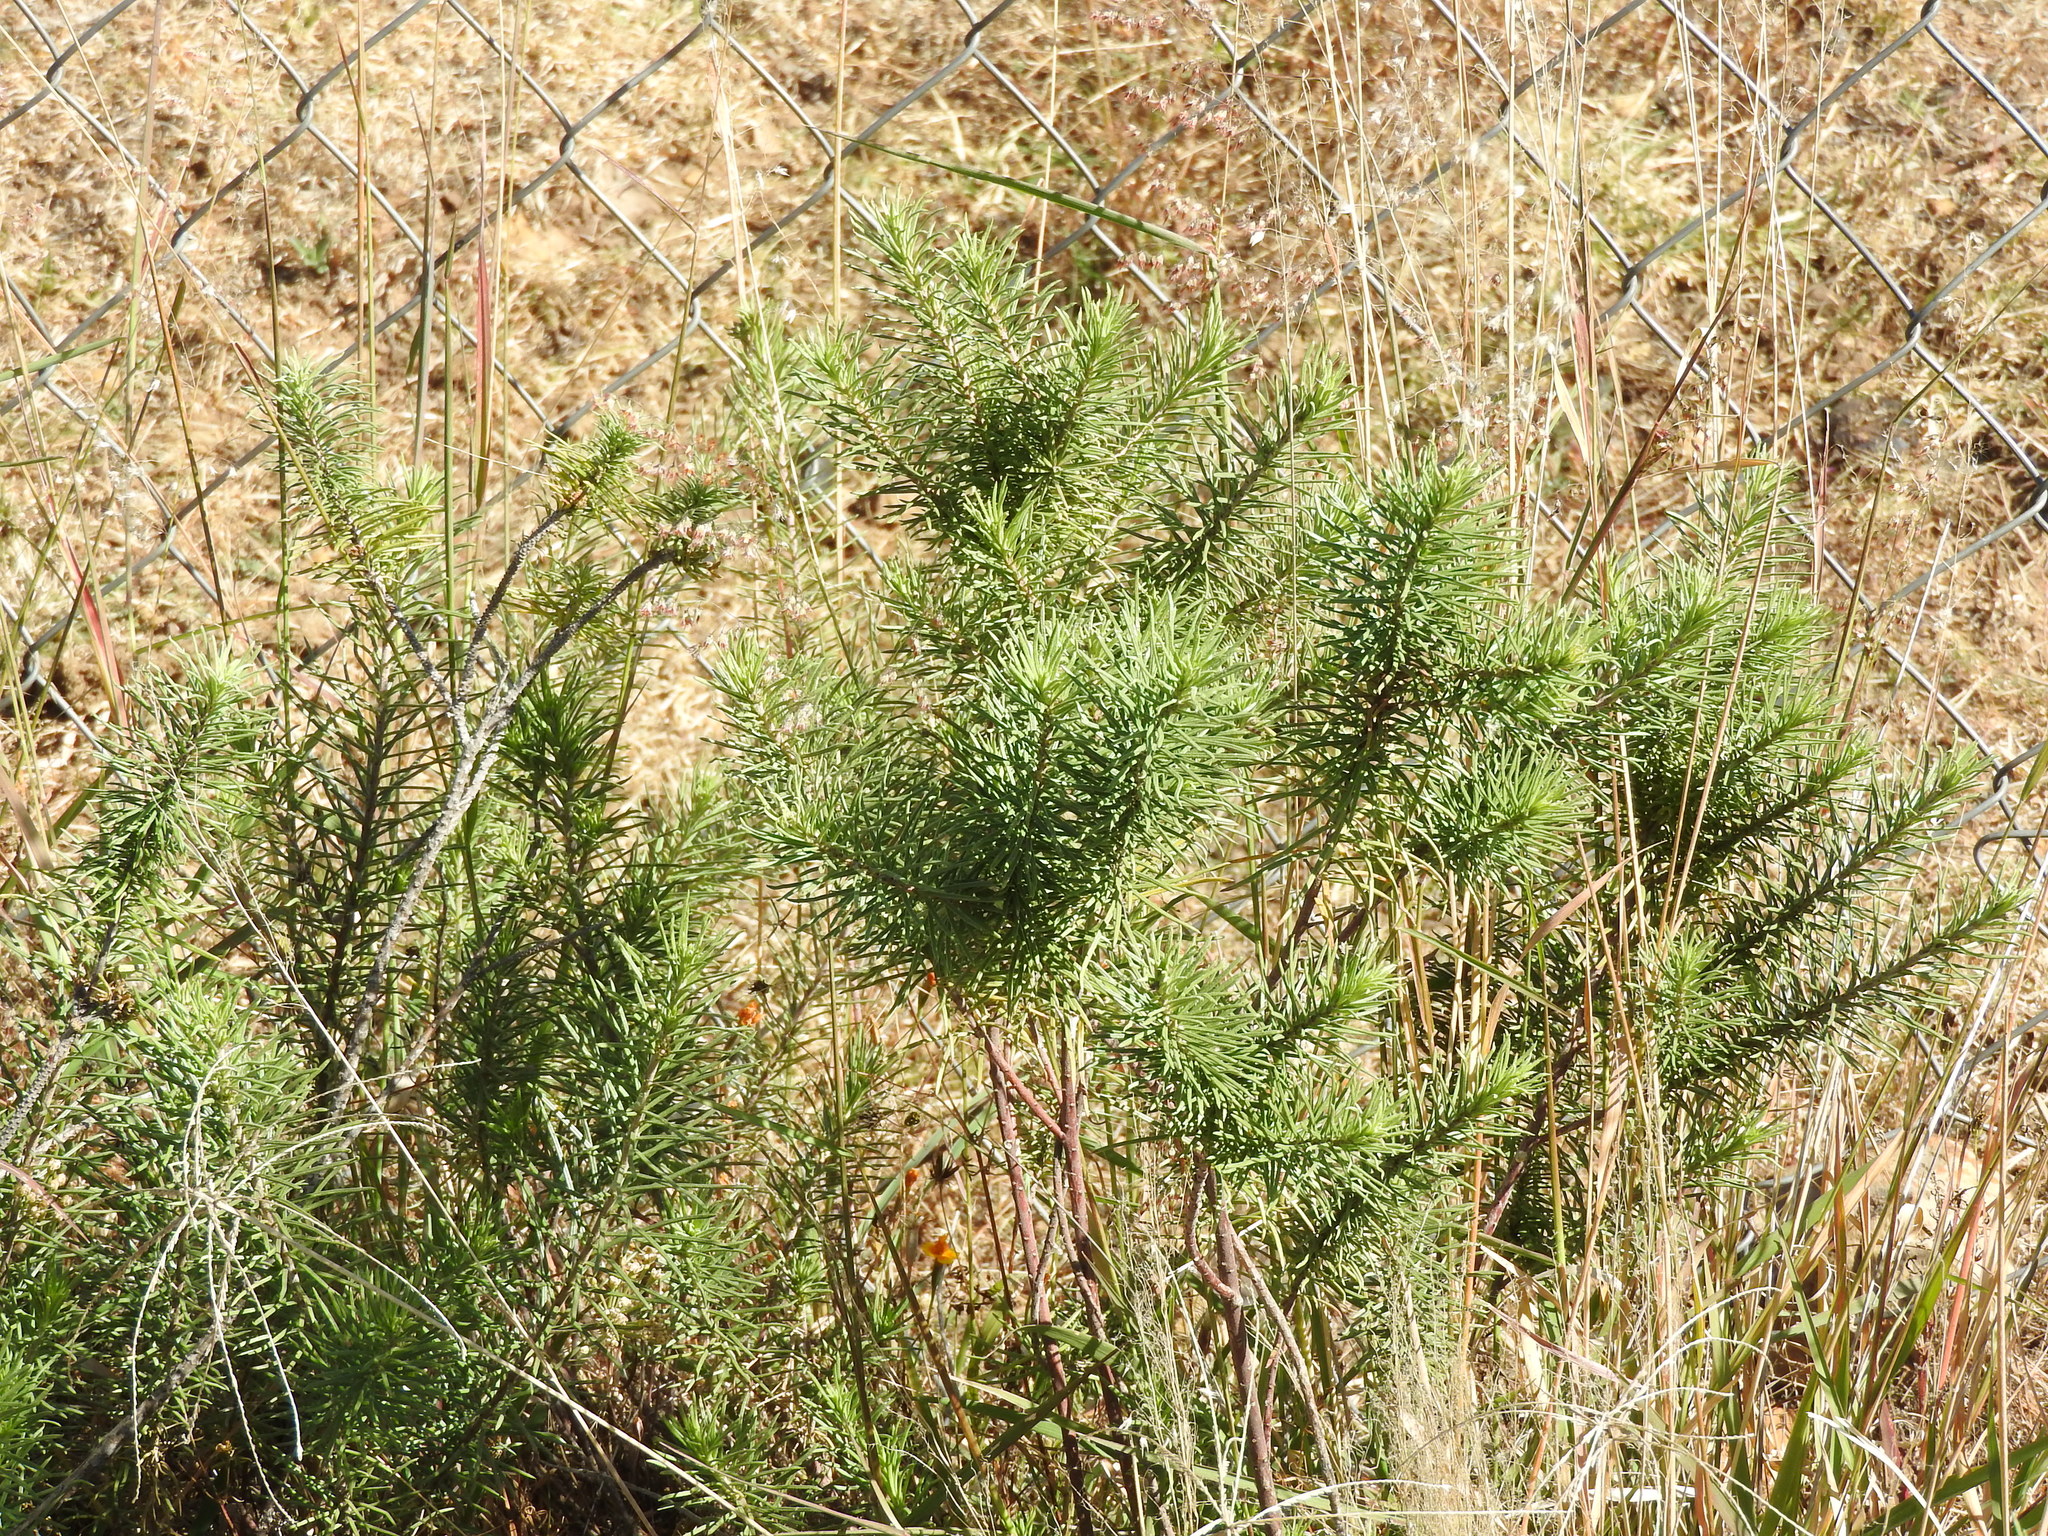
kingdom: Plantae
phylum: Tracheophyta
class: Magnoliopsida
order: Gentianales
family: Apocynaceae
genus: Asclepias
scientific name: Asclepias linaria
